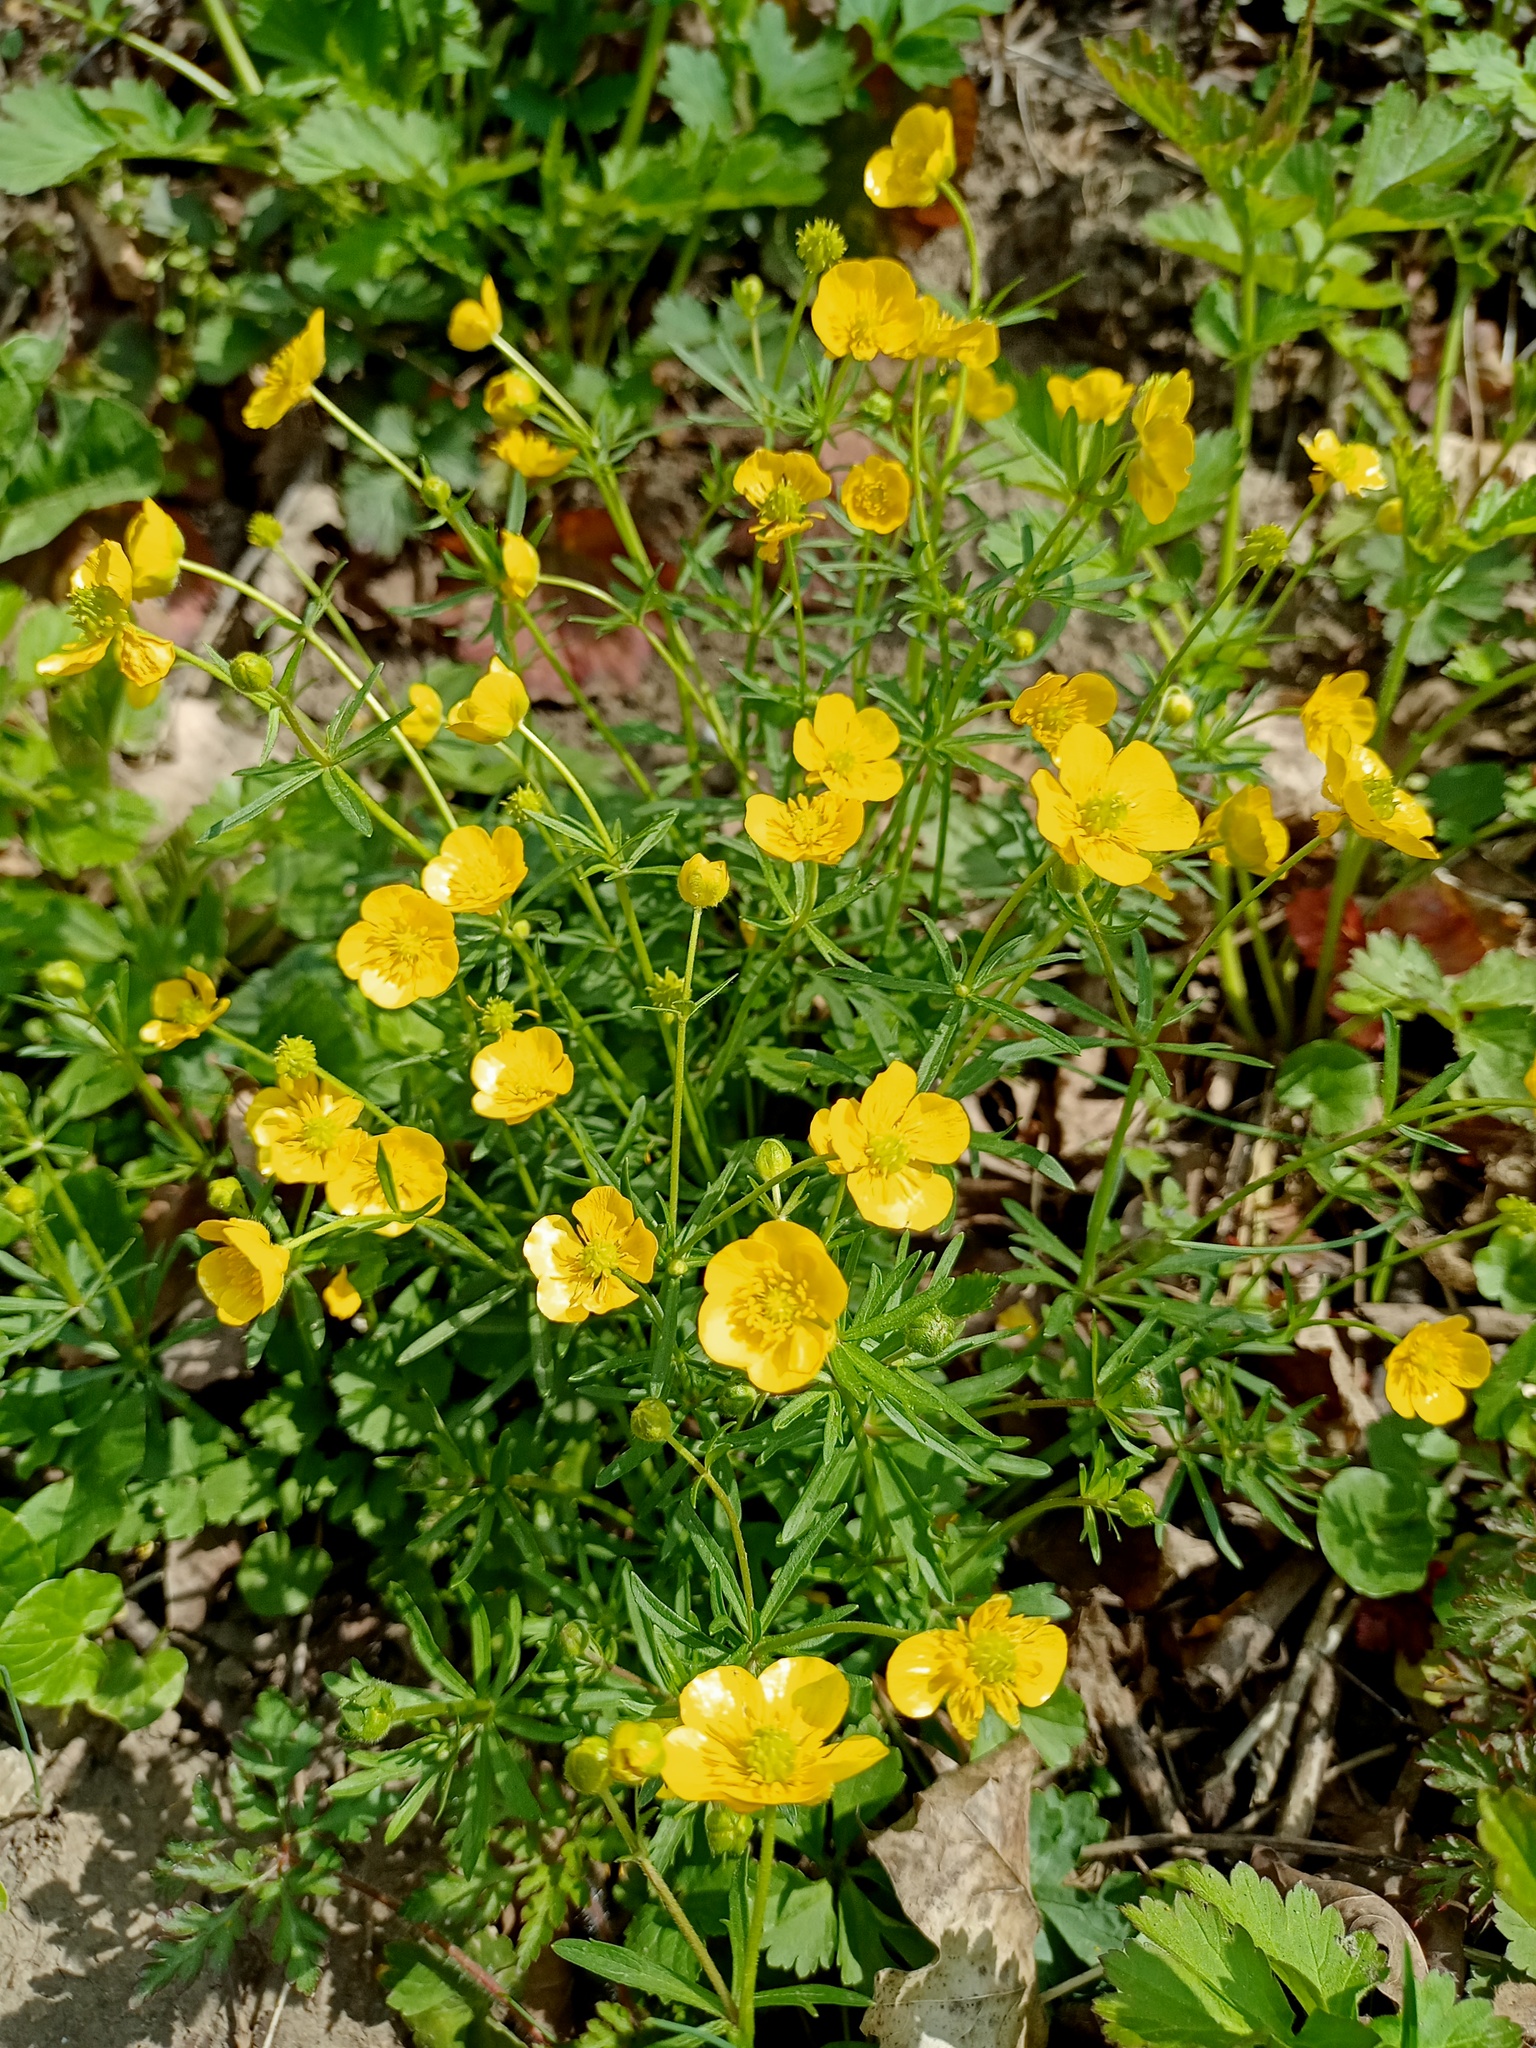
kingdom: Plantae
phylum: Tracheophyta
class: Magnoliopsida
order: Ranunculales
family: Ranunculaceae
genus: Ranunculus
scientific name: Ranunculus auricomus
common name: Goldilocks buttercup
